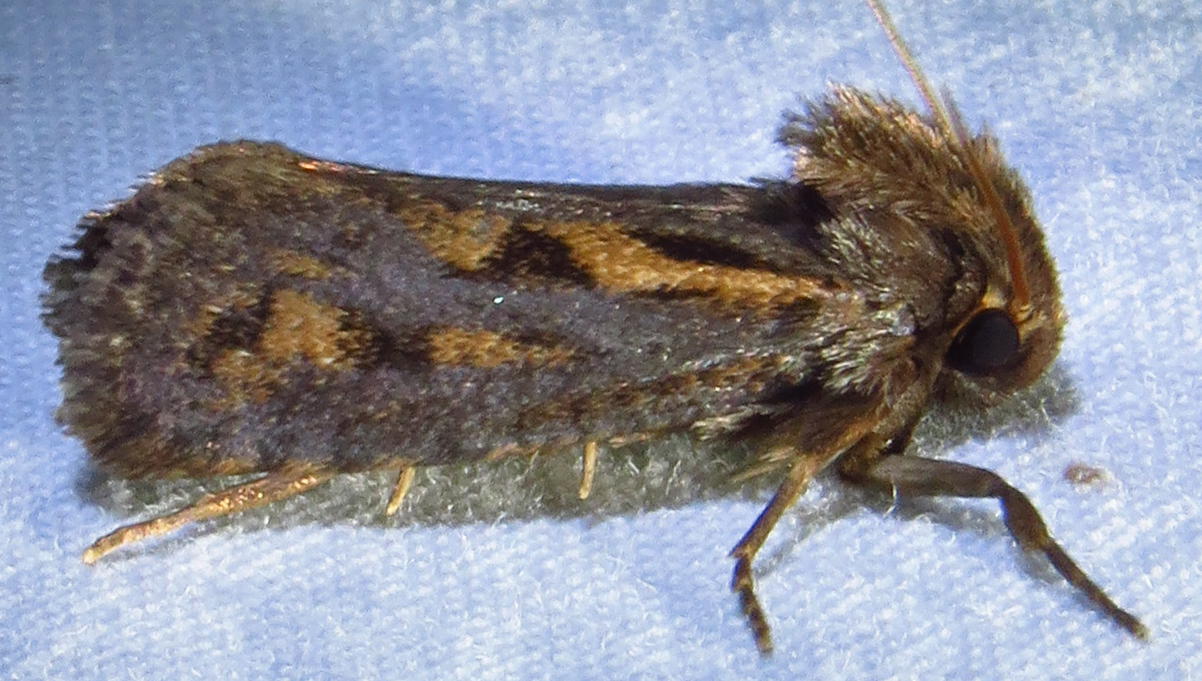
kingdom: Animalia
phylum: Arthropoda
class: Insecta
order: Lepidoptera
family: Tineidae
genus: Acrolophus
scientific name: Acrolophus popeanella
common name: Clemens' grass tubeworm moth
